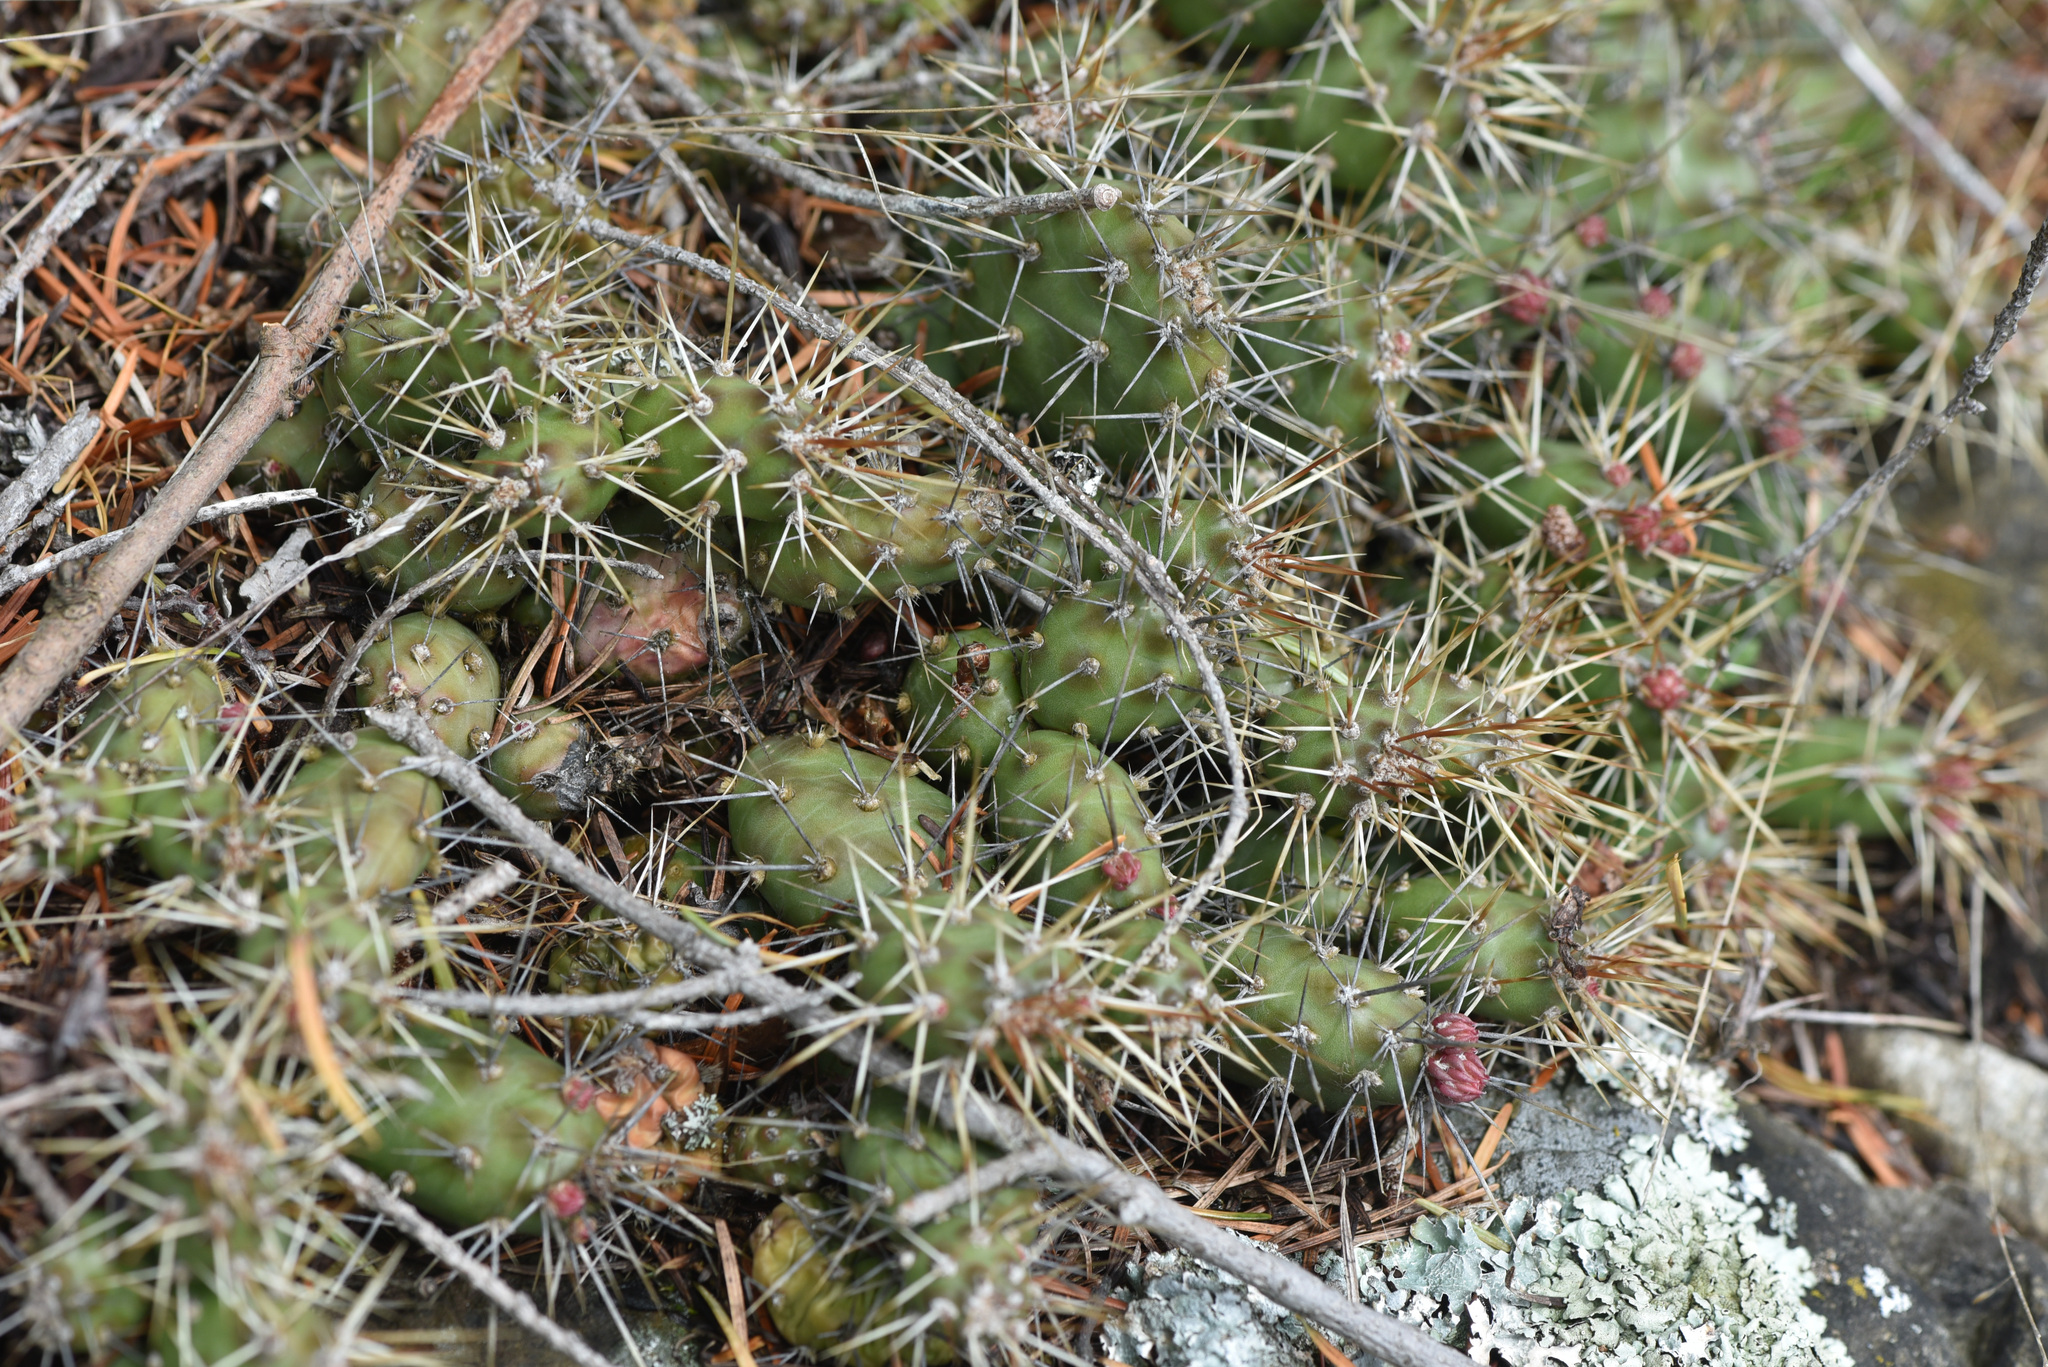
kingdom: Plantae
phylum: Tracheophyta
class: Magnoliopsida
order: Caryophyllales
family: Cactaceae
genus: Opuntia
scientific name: Opuntia fragilis
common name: Brittle cactus
